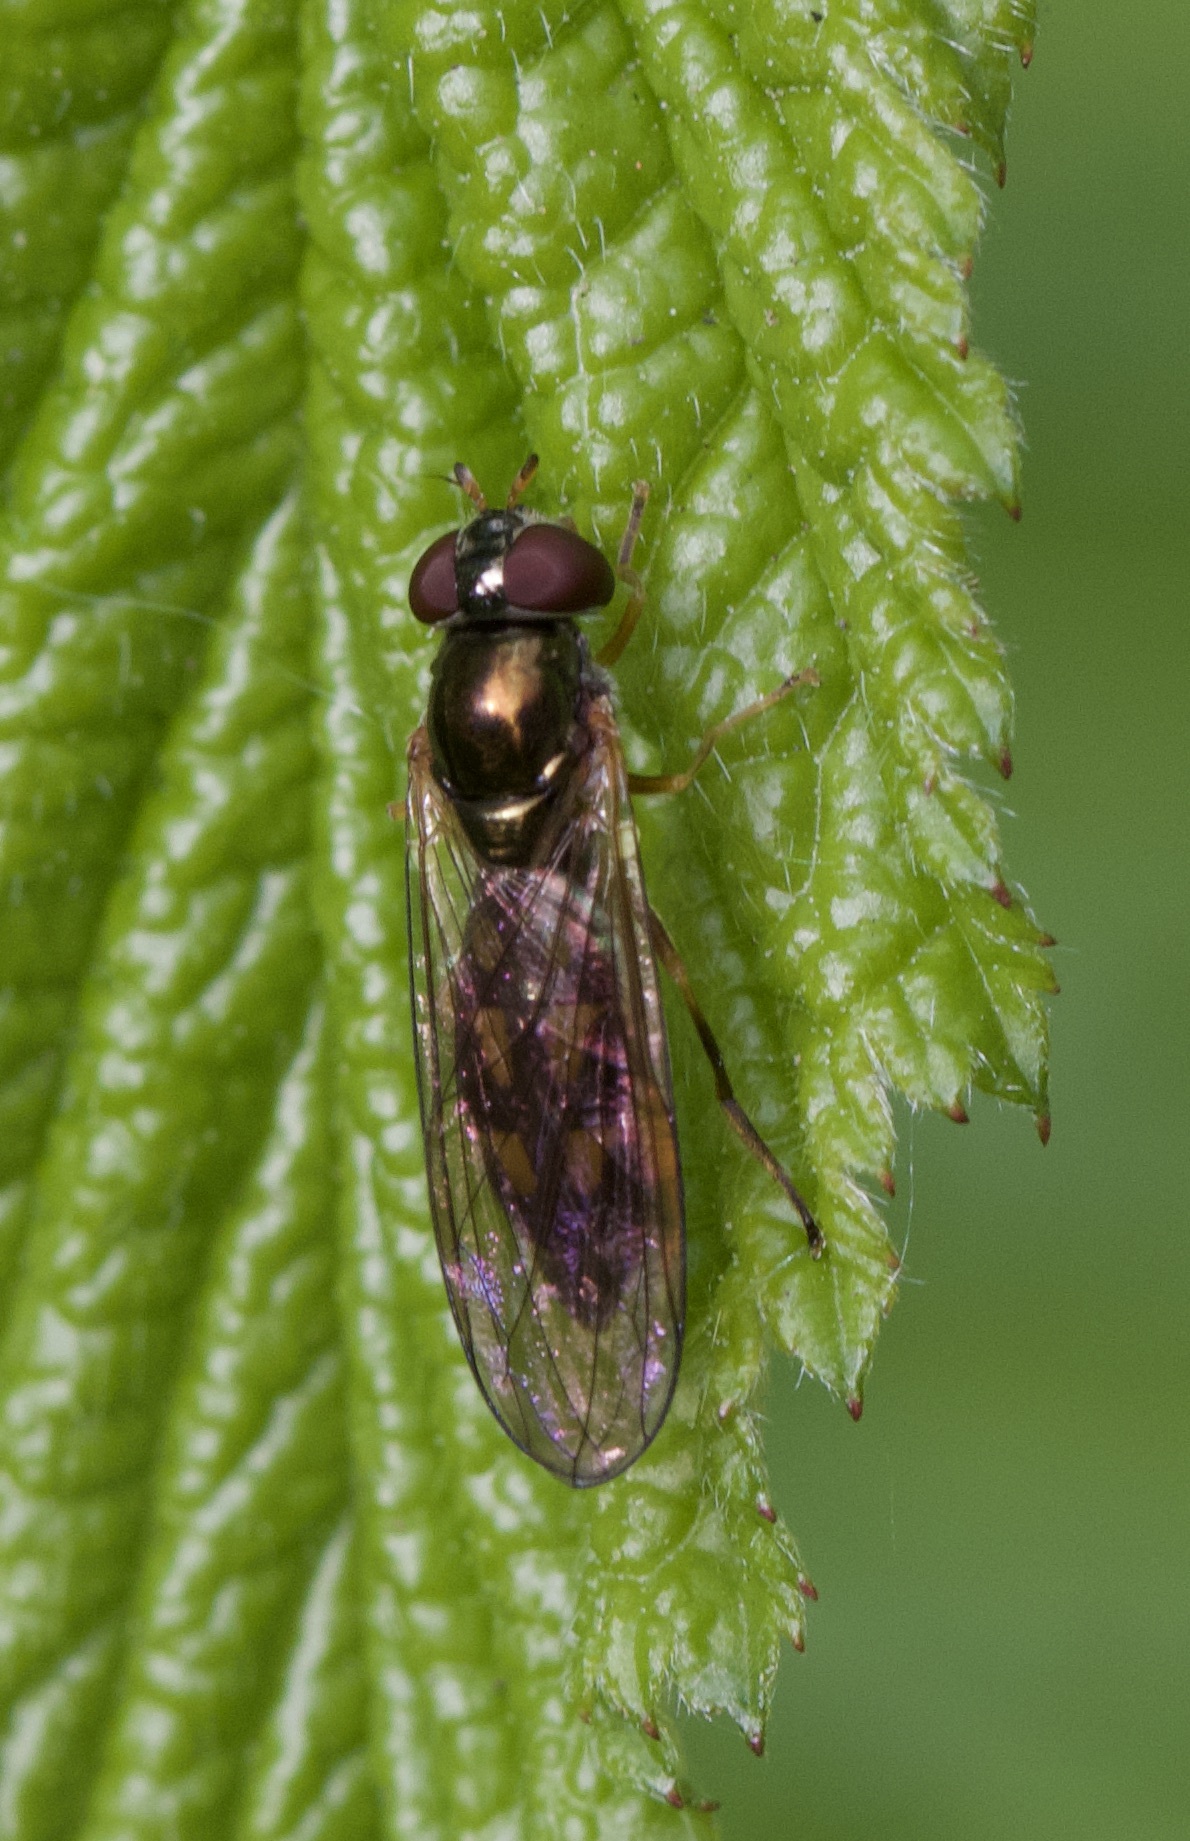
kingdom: Animalia
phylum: Arthropoda
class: Insecta
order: Diptera
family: Syrphidae
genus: Melanostoma
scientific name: Melanostoma scalare
